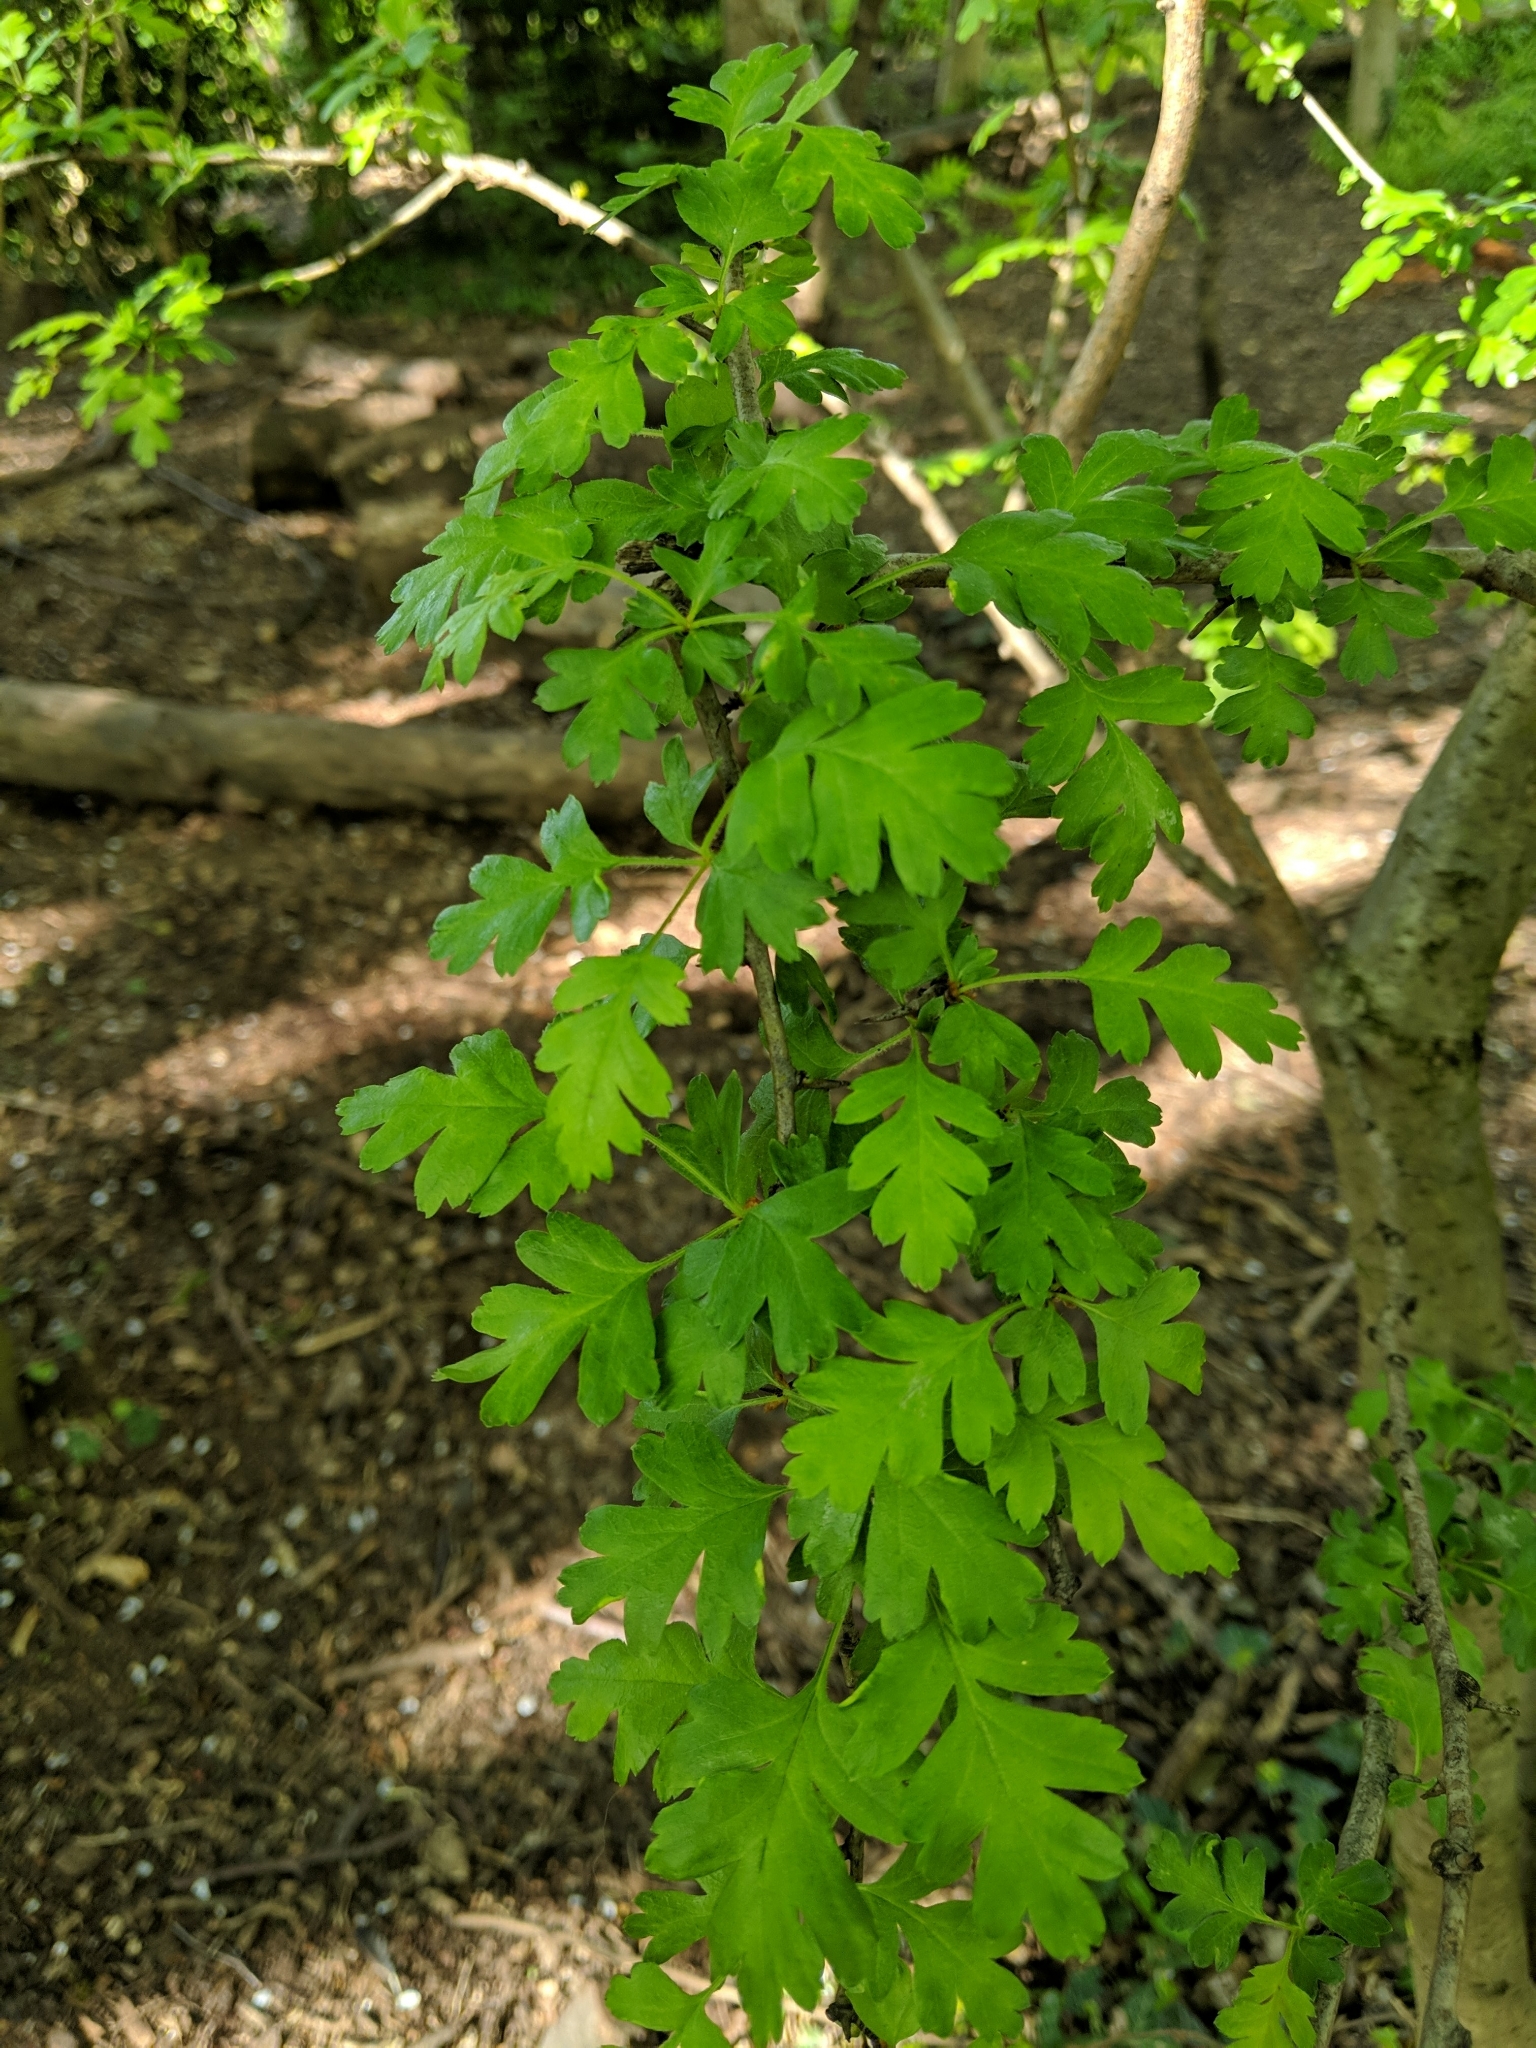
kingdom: Plantae
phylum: Tracheophyta
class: Magnoliopsida
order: Rosales
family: Rosaceae
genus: Crataegus
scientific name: Crataegus monogyna
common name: Hawthorn
